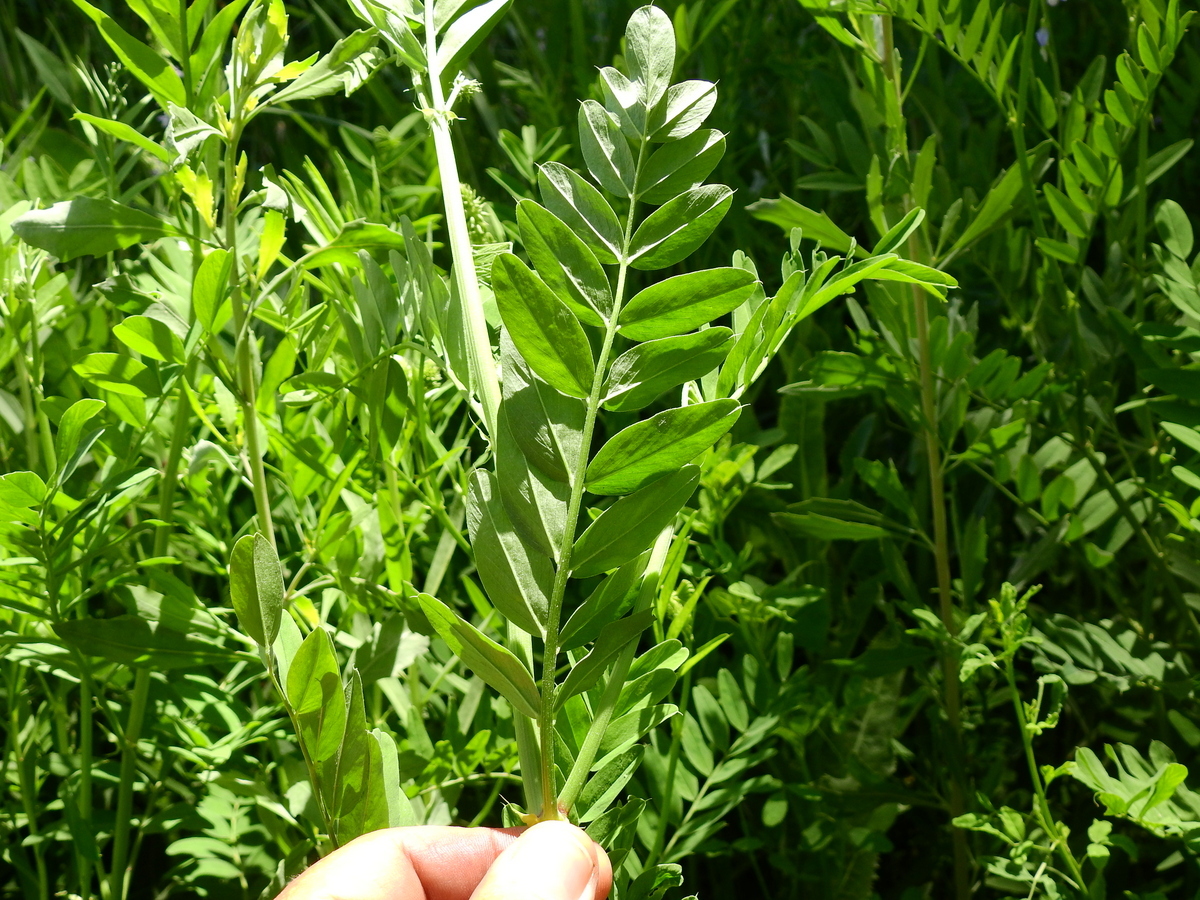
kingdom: Plantae
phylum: Tracheophyta
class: Magnoliopsida
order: Fabales
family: Fabaceae
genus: Galega
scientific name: Galega officinalis
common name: Goat's-rue
